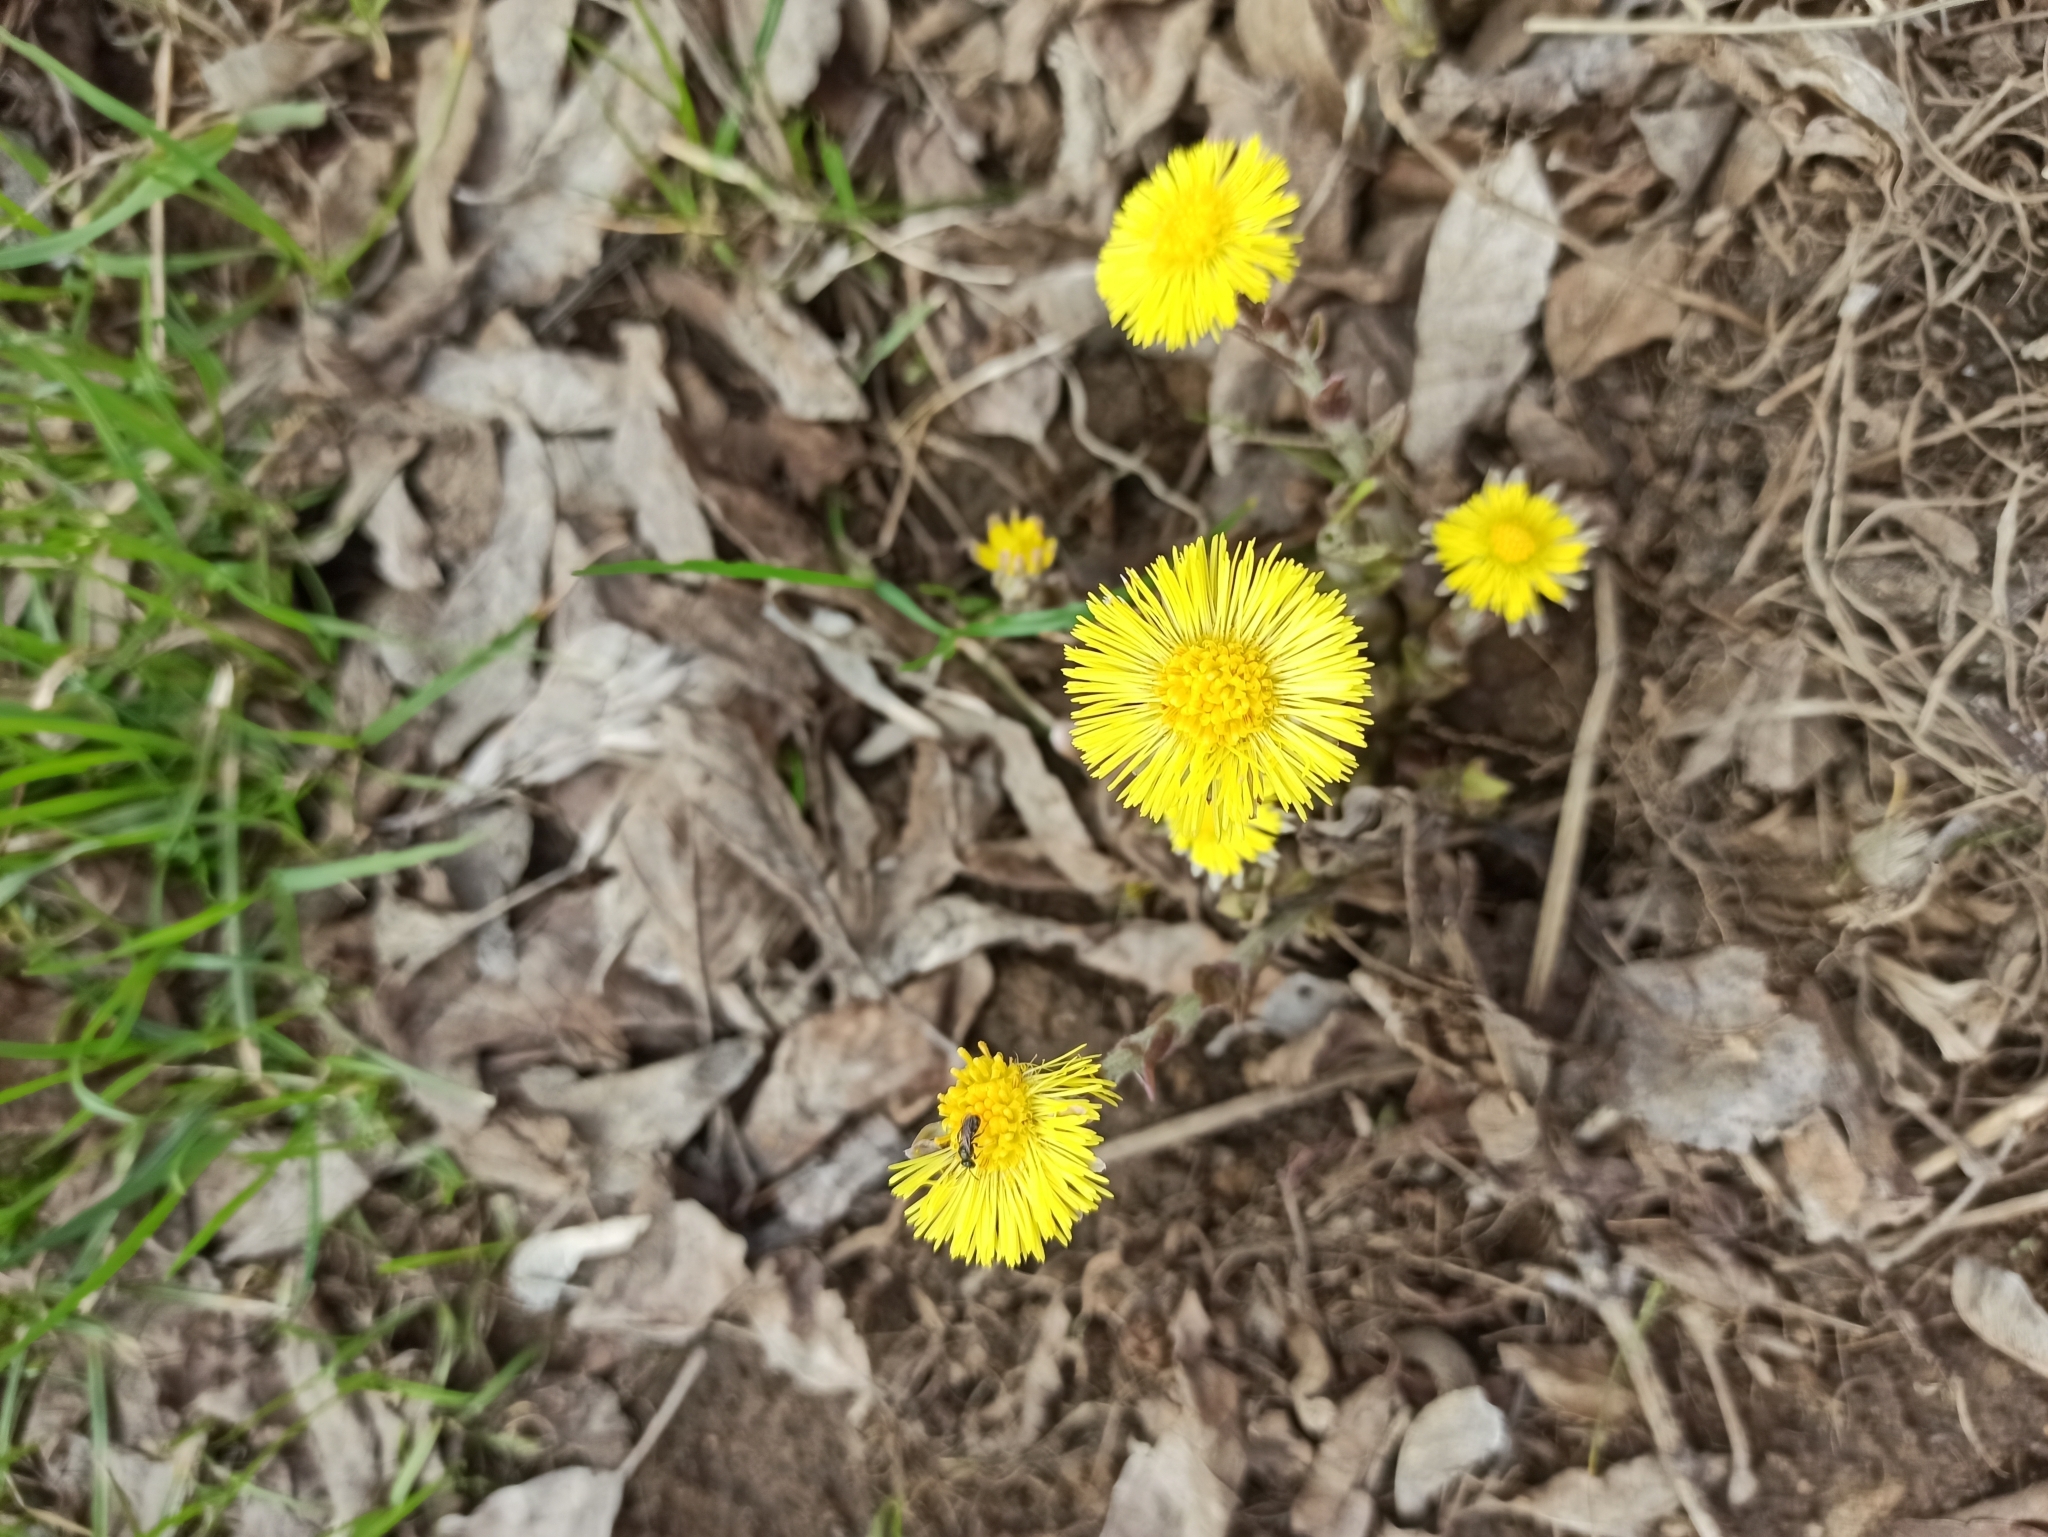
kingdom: Plantae
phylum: Tracheophyta
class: Magnoliopsida
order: Asterales
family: Asteraceae
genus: Tussilago
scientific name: Tussilago farfara
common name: Coltsfoot
